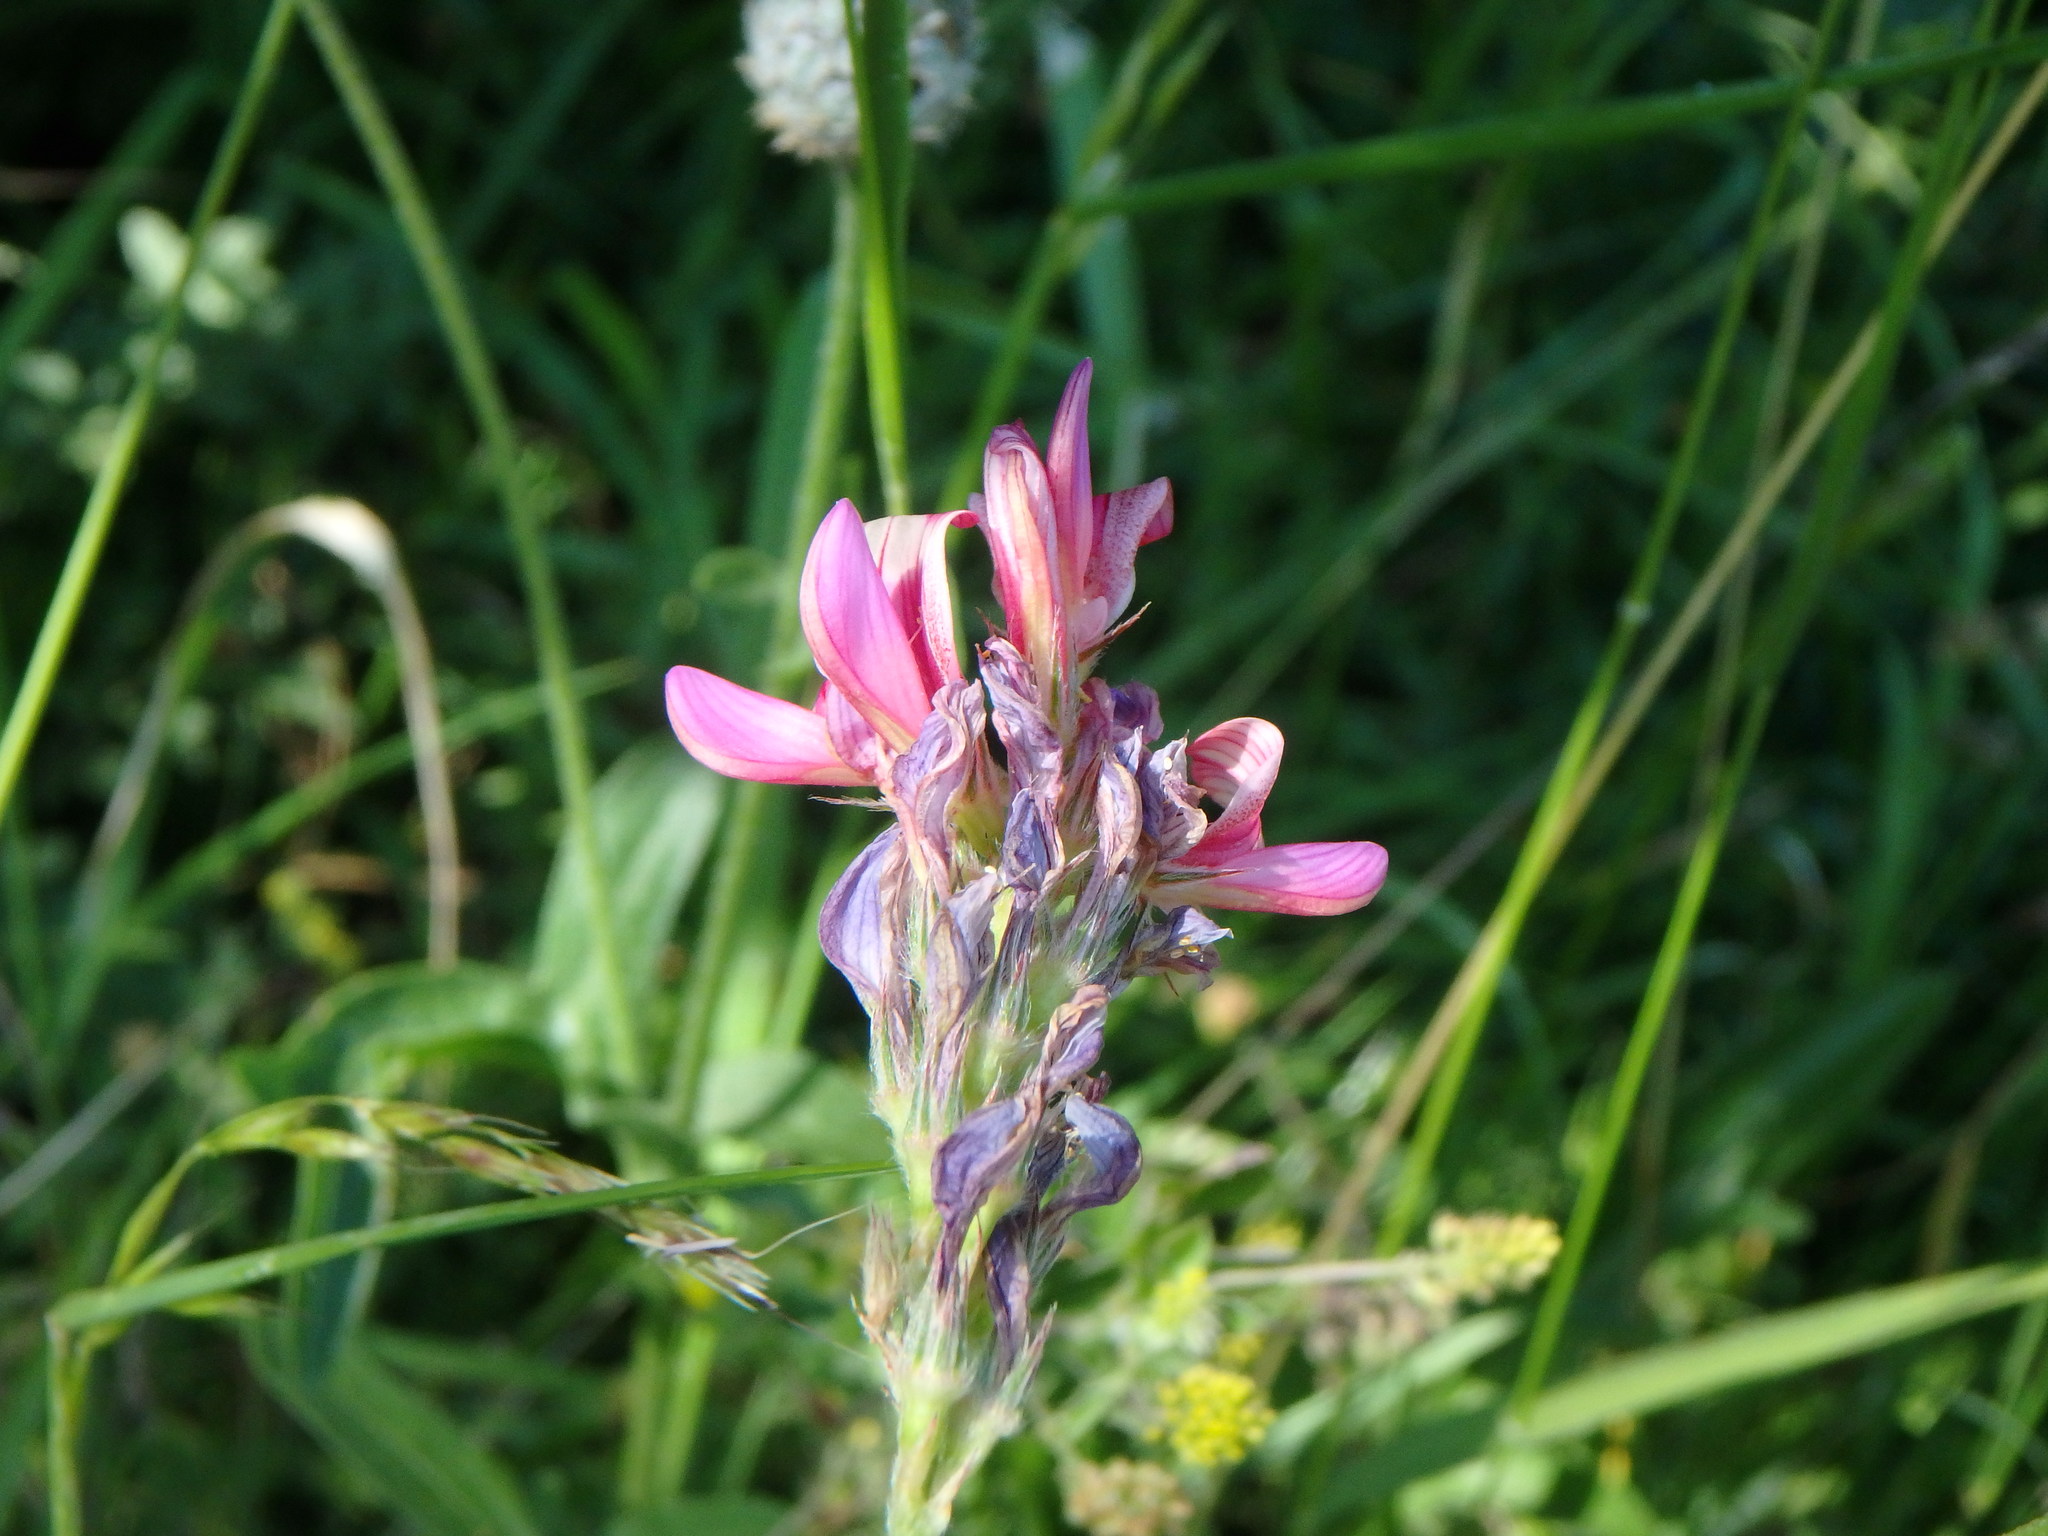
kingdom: Plantae
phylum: Tracheophyta
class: Magnoliopsida
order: Fabales
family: Fabaceae
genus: Onobrychis
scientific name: Onobrychis viciifolia
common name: Sainfoin
